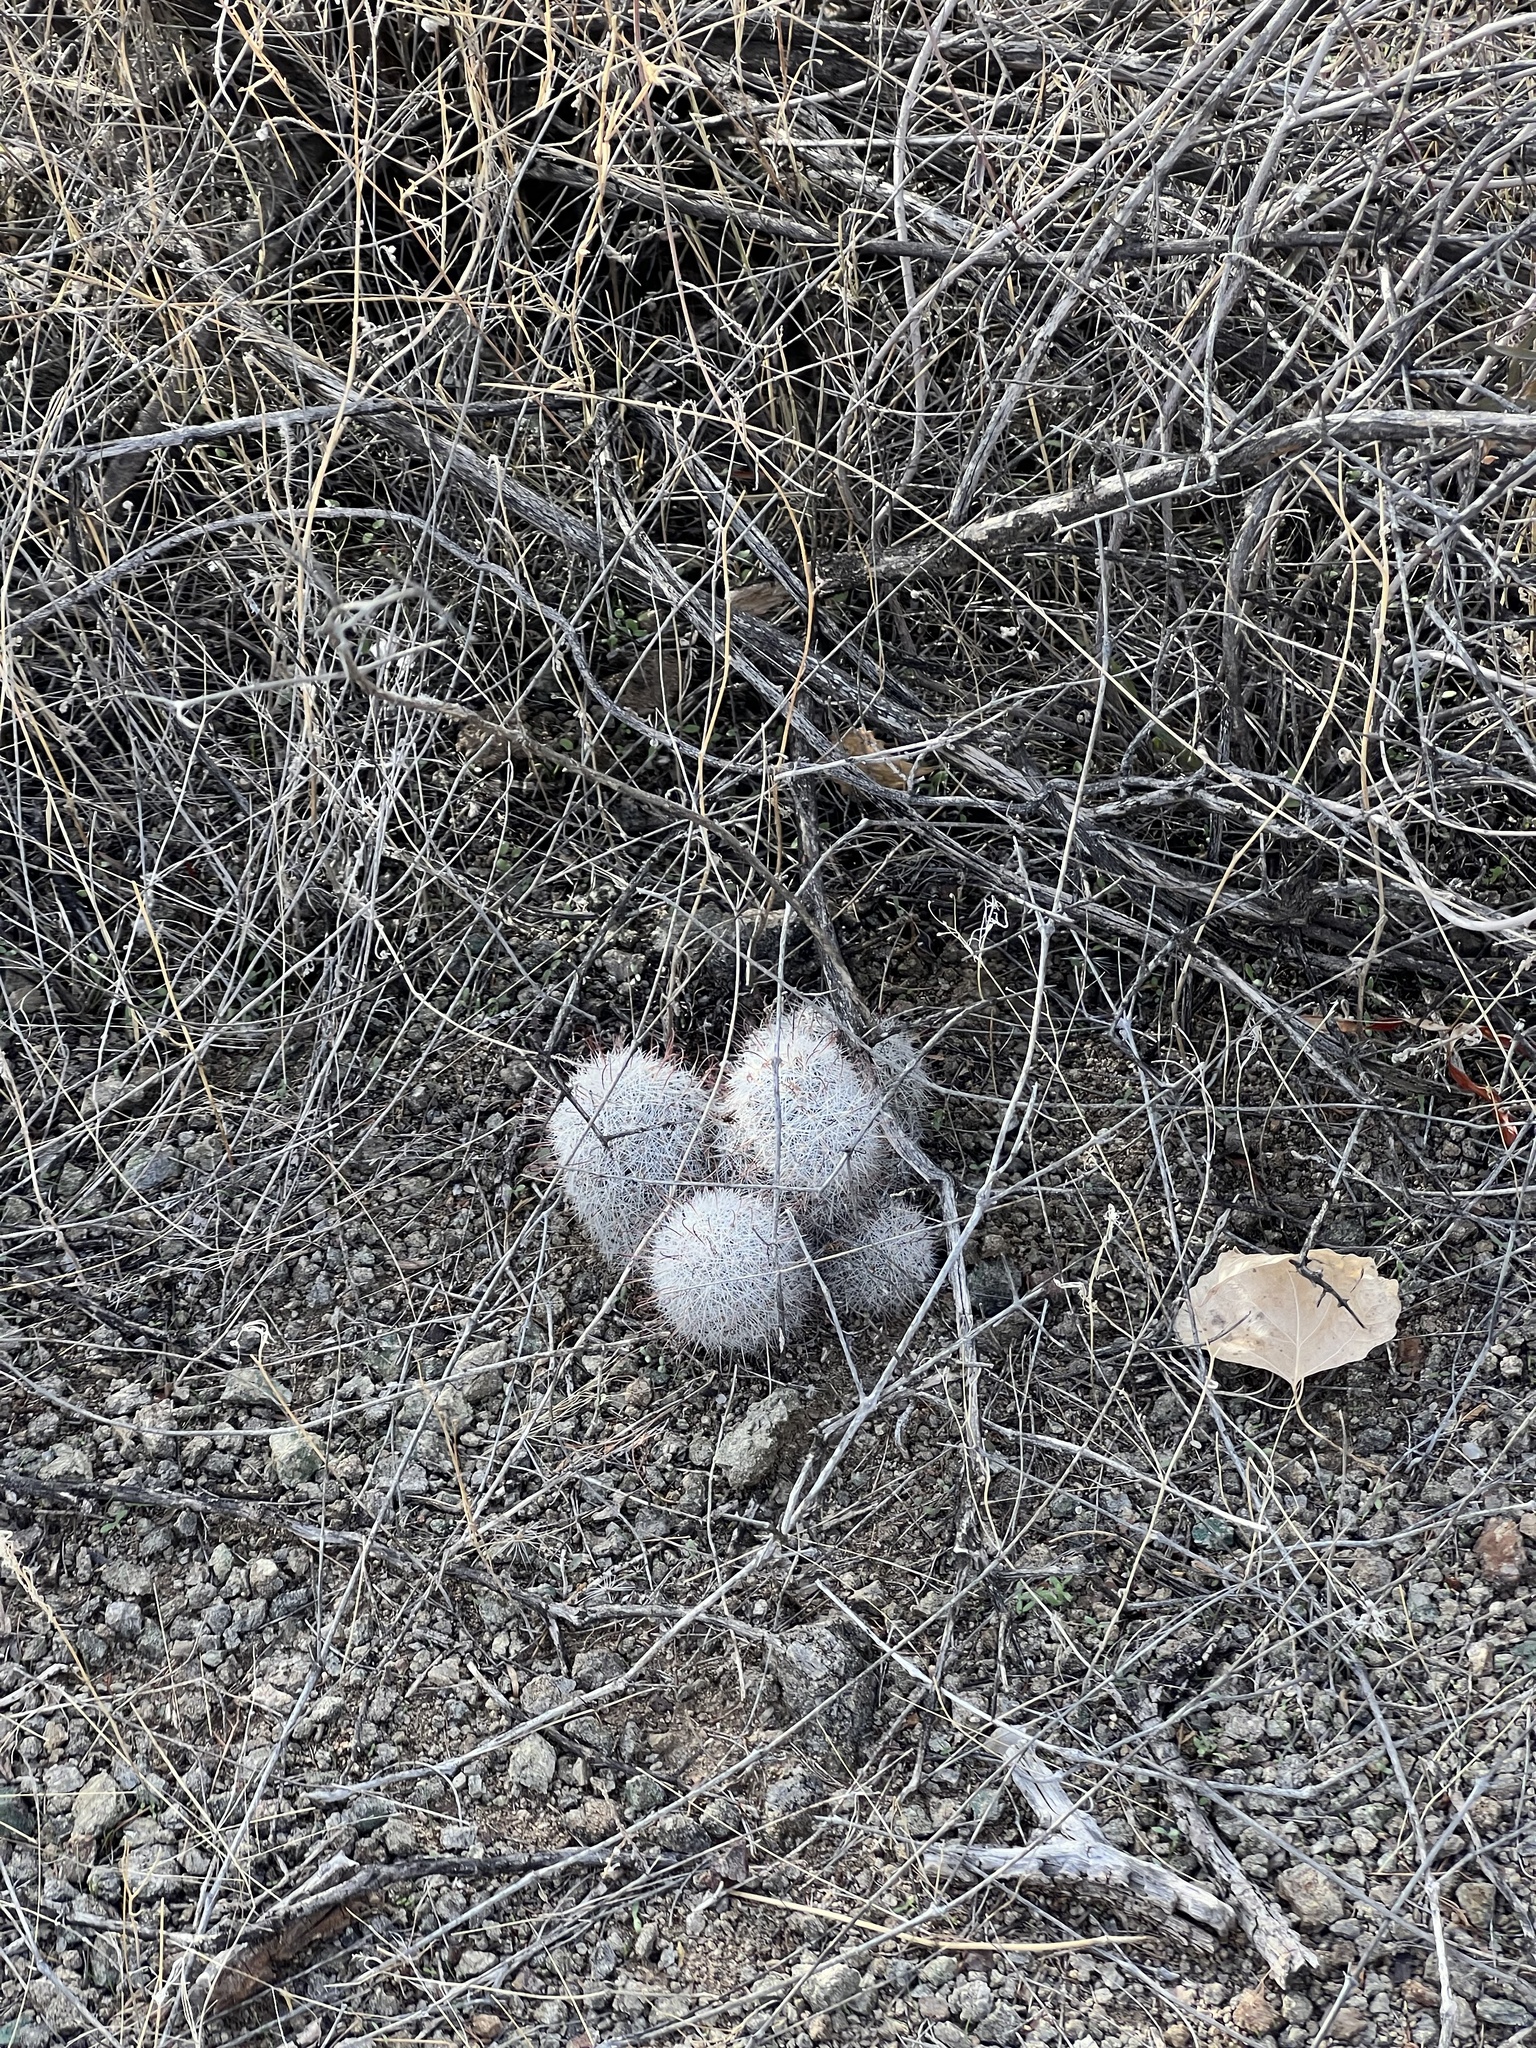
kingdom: Plantae
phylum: Tracheophyta
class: Magnoliopsida
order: Caryophyllales
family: Cactaceae
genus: Cochemiea
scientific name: Cochemiea grahamii
